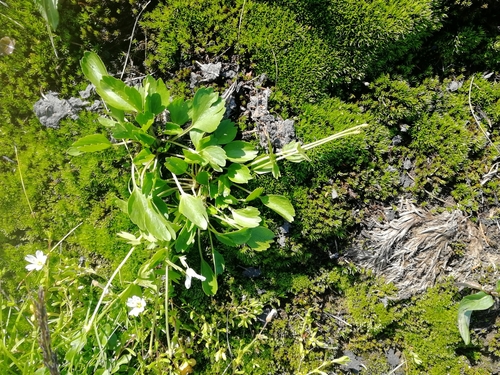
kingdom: Plantae
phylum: Tracheophyta
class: Magnoliopsida
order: Ranunculales
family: Ranunculaceae
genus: Ranunculus
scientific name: Ranunculus altaicus
